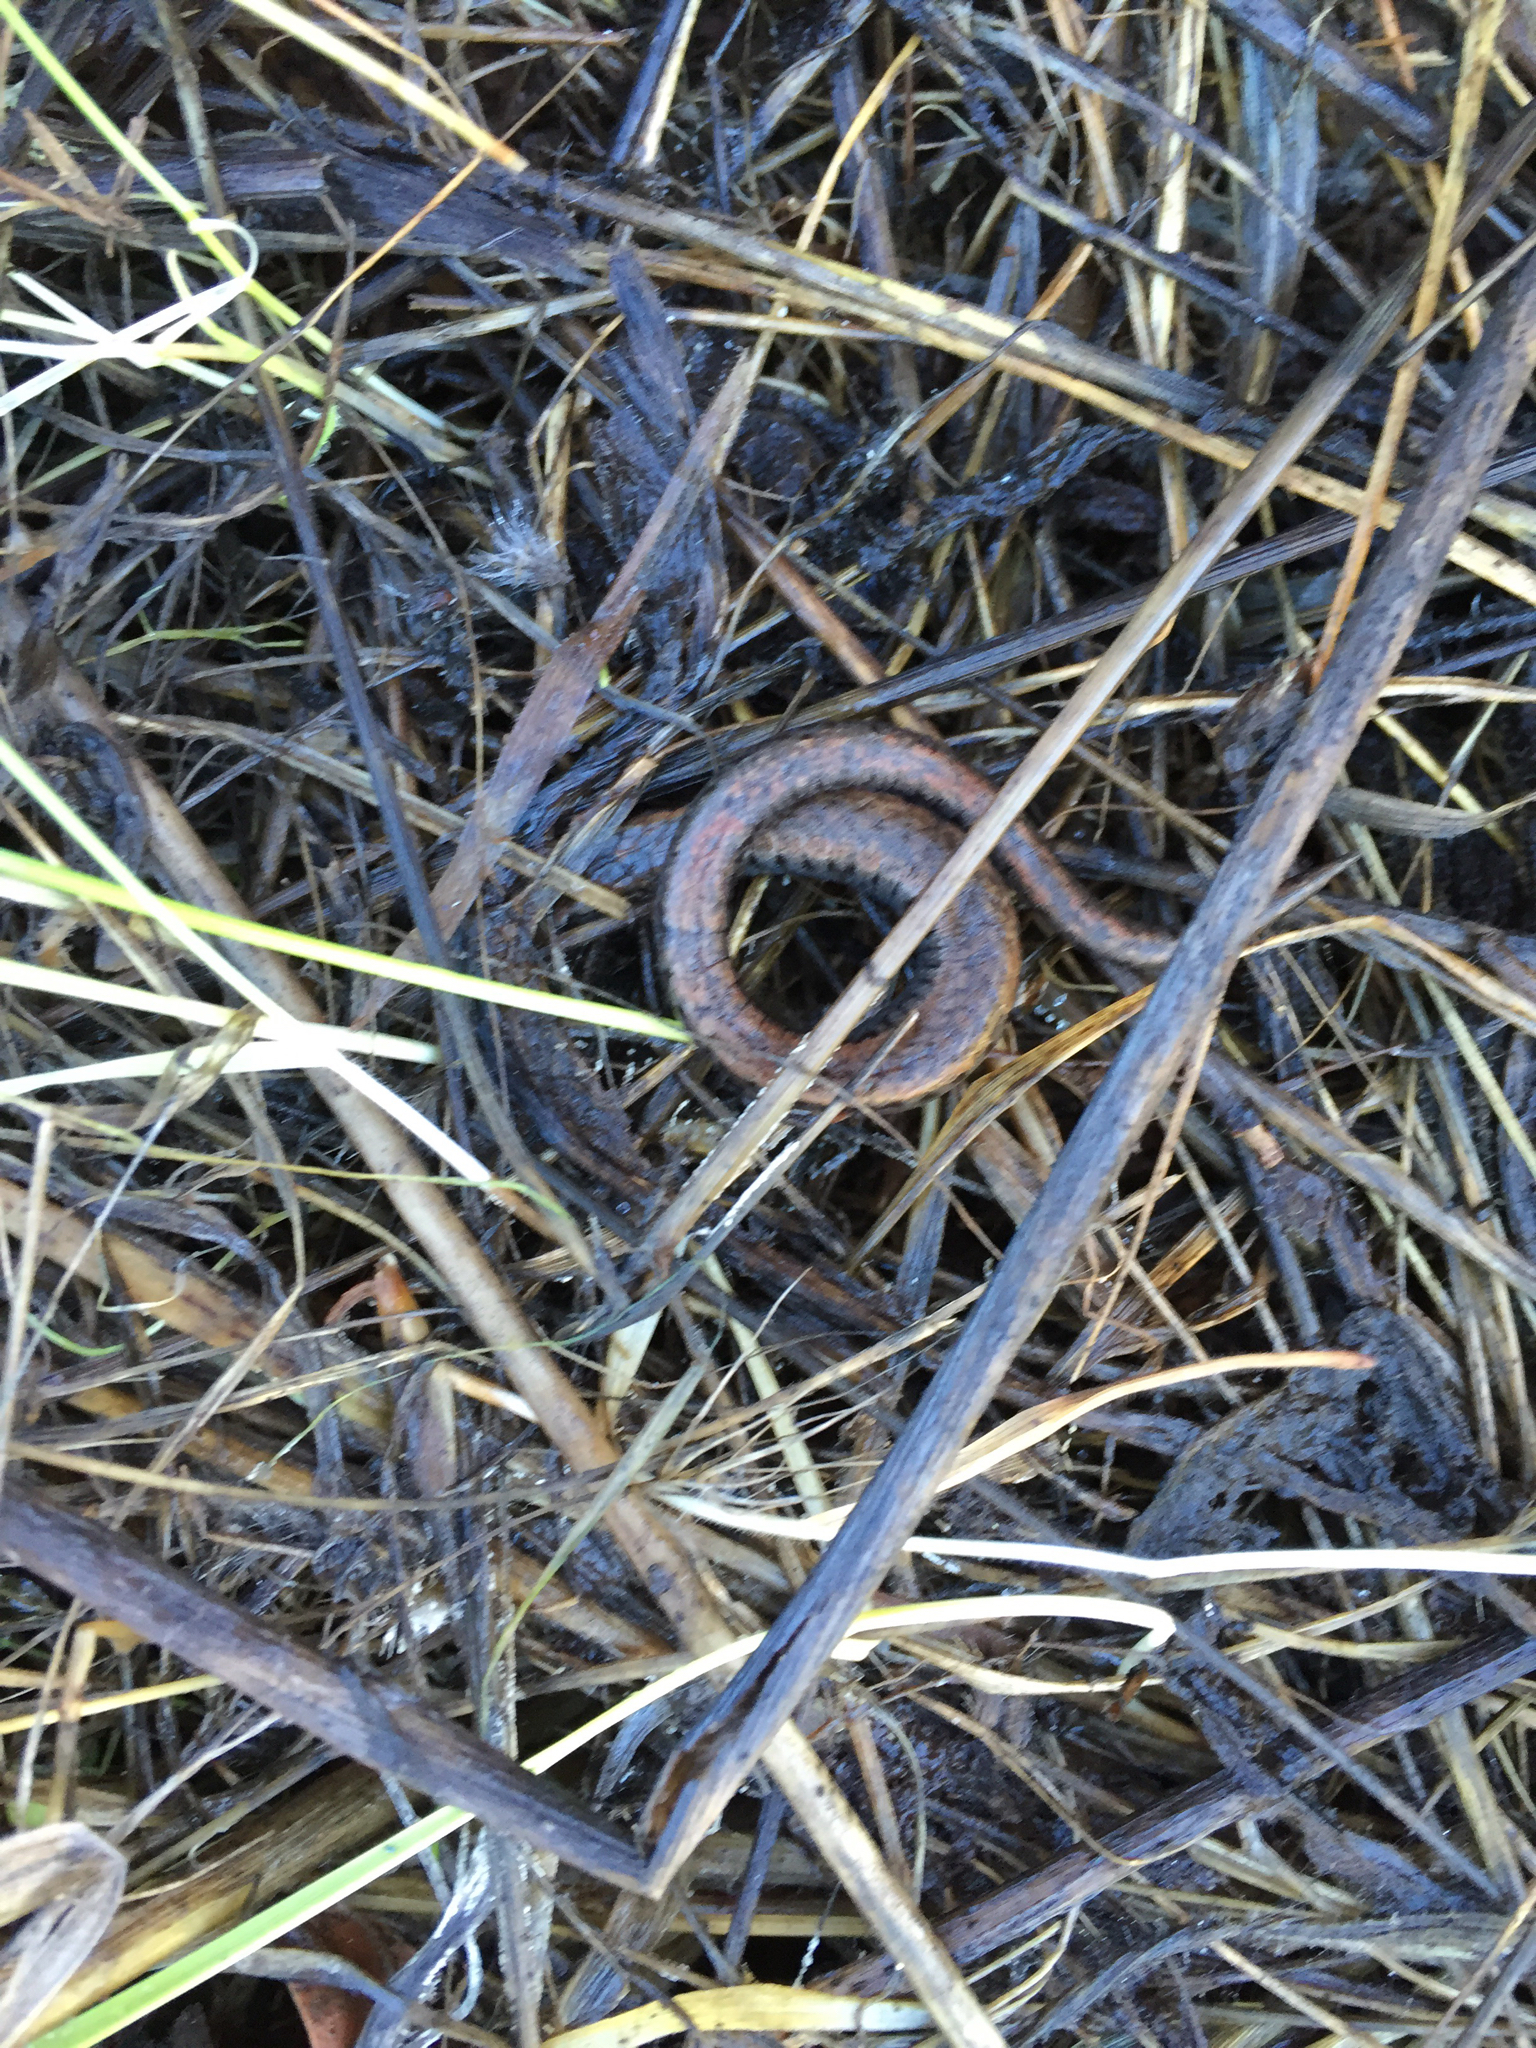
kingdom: Animalia
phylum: Chordata
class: Amphibia
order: Caudata
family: Plethodontidae
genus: Batrachoseps
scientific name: Batrachoseps attenuatus
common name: California slender salamander
